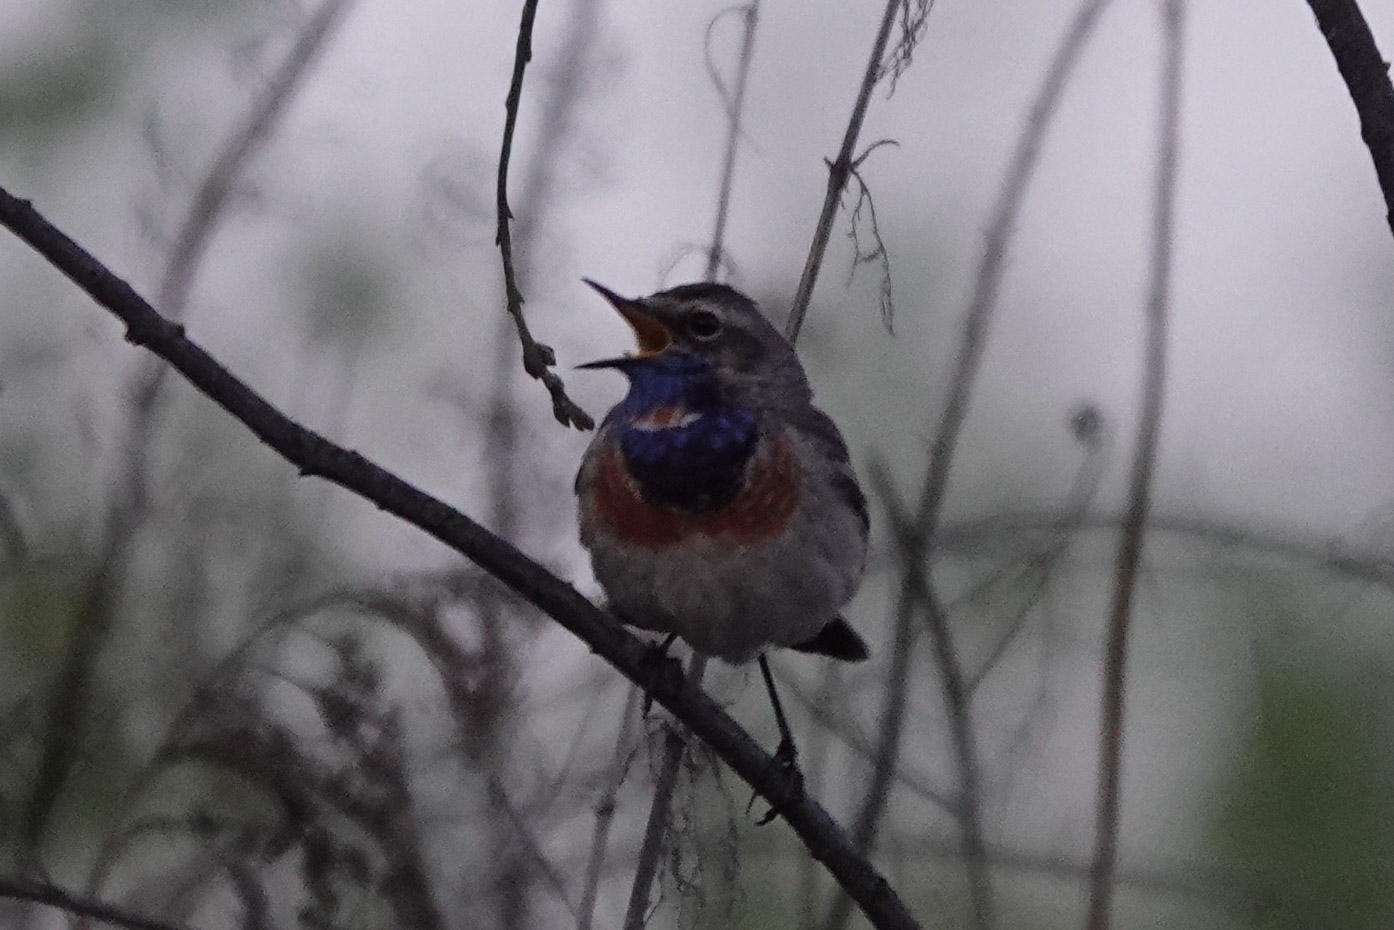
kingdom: Animalia
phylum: Chordata
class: Aves
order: Passeriformes
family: Muscicapidae
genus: Luscinia
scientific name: Luscinia svecica
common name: Bluethroat
